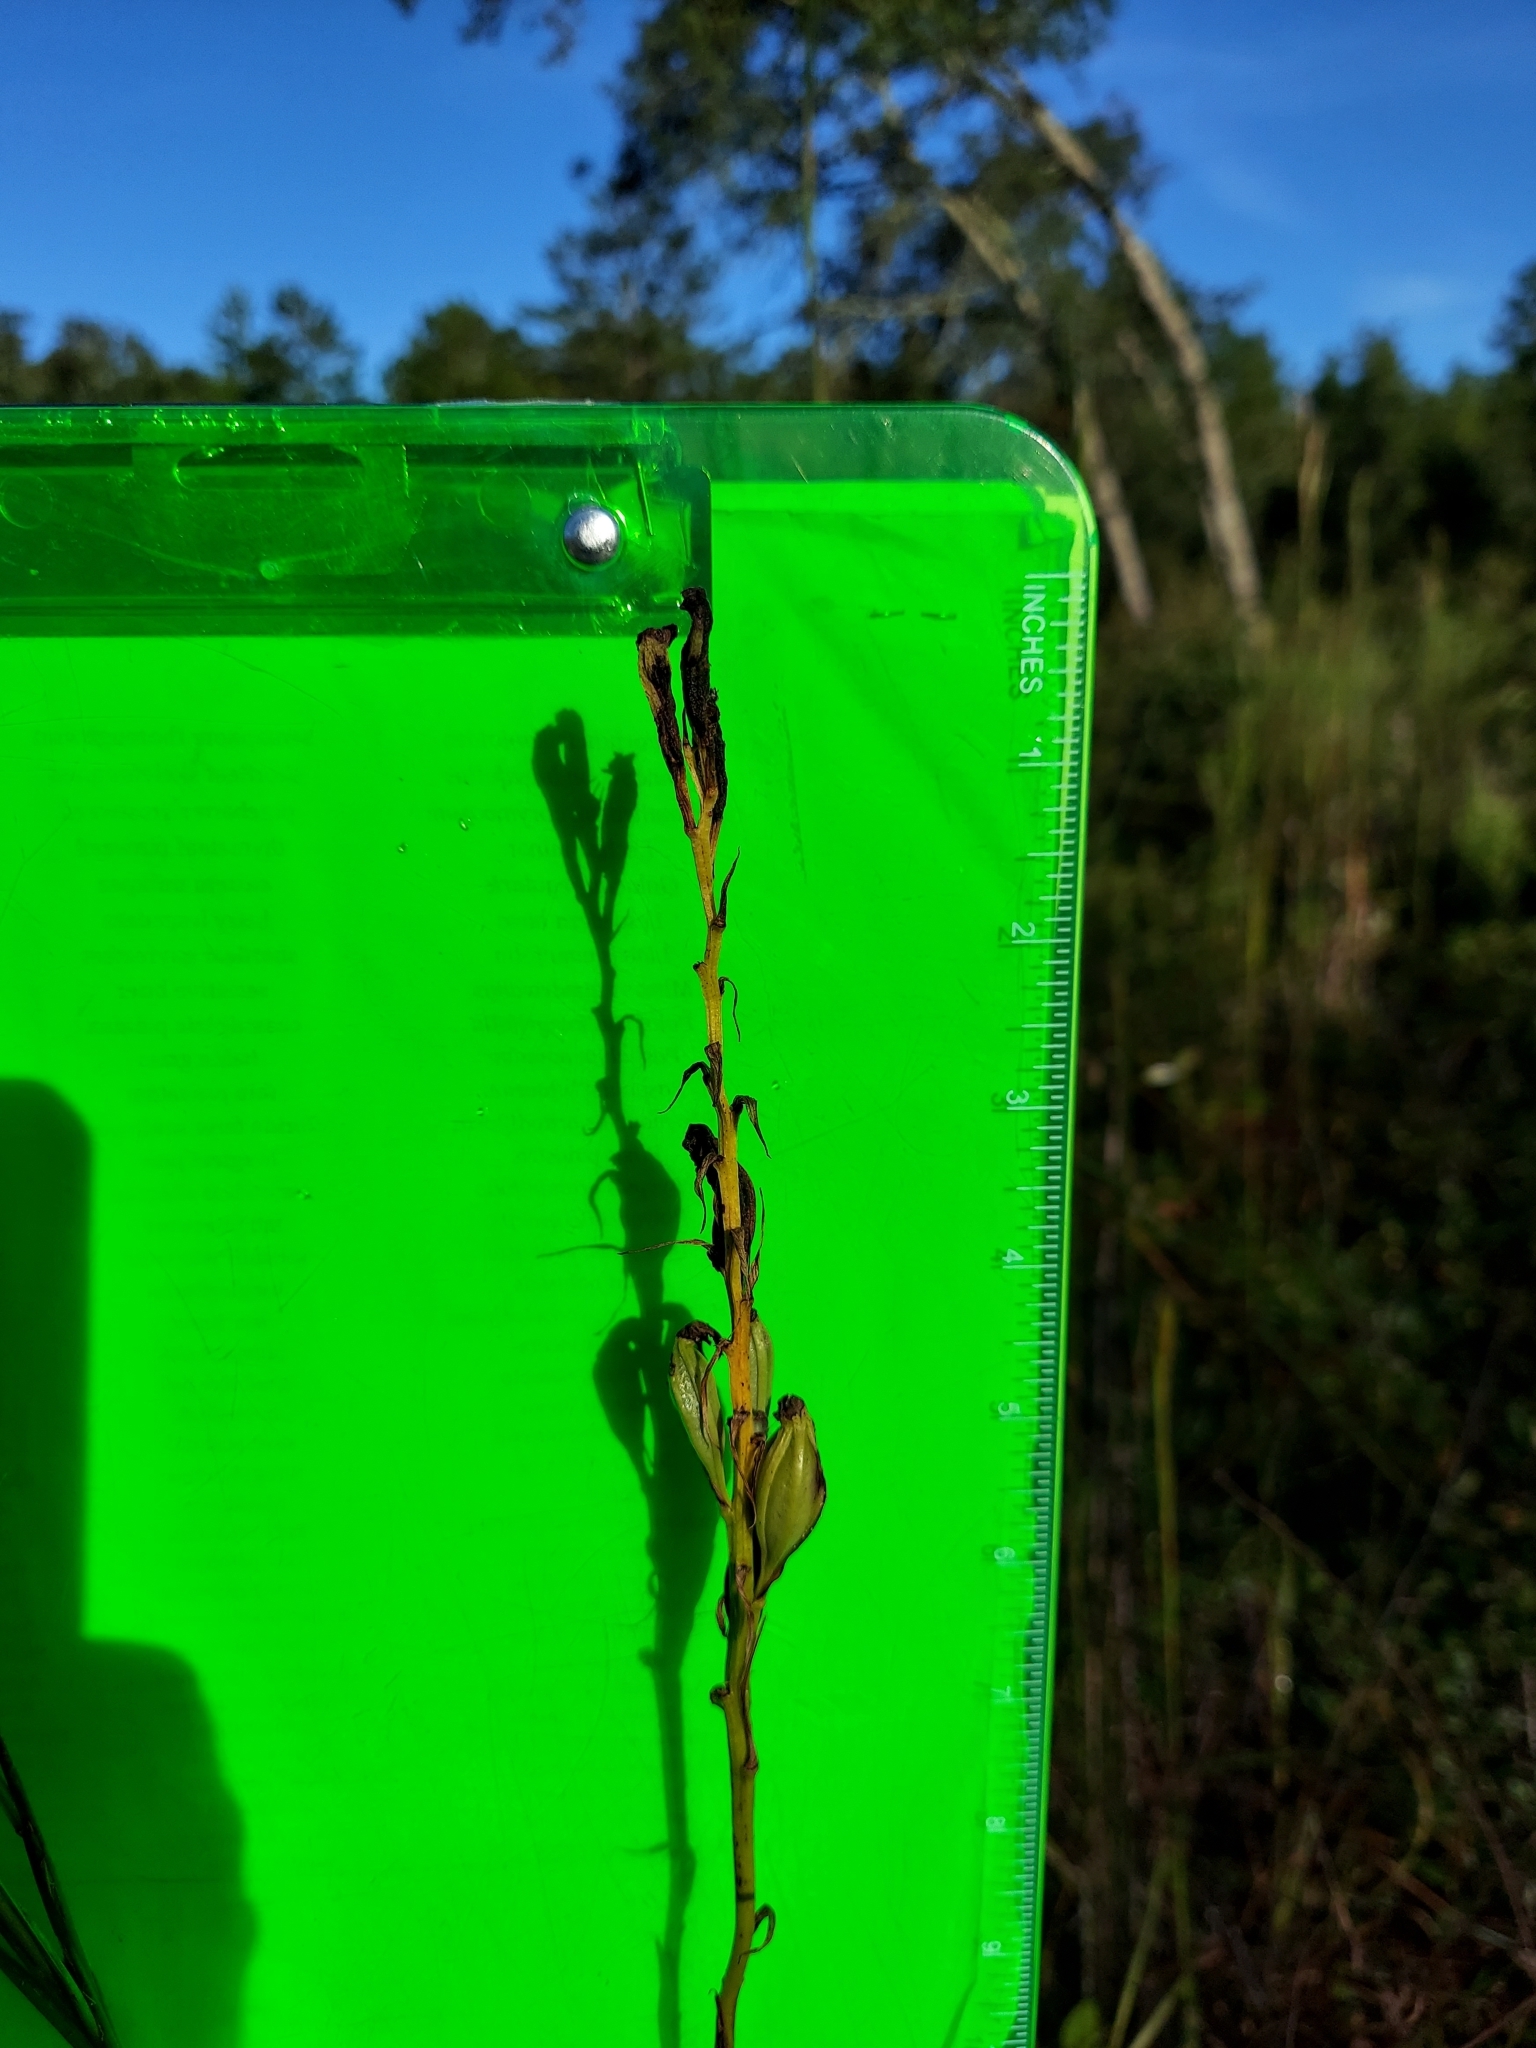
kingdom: Plantae
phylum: Tracheophyta
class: Liliopsida
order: Asparagales
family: Orchidaceae
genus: Eulophia
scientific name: Eulophia ecristata
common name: Giant orchid
